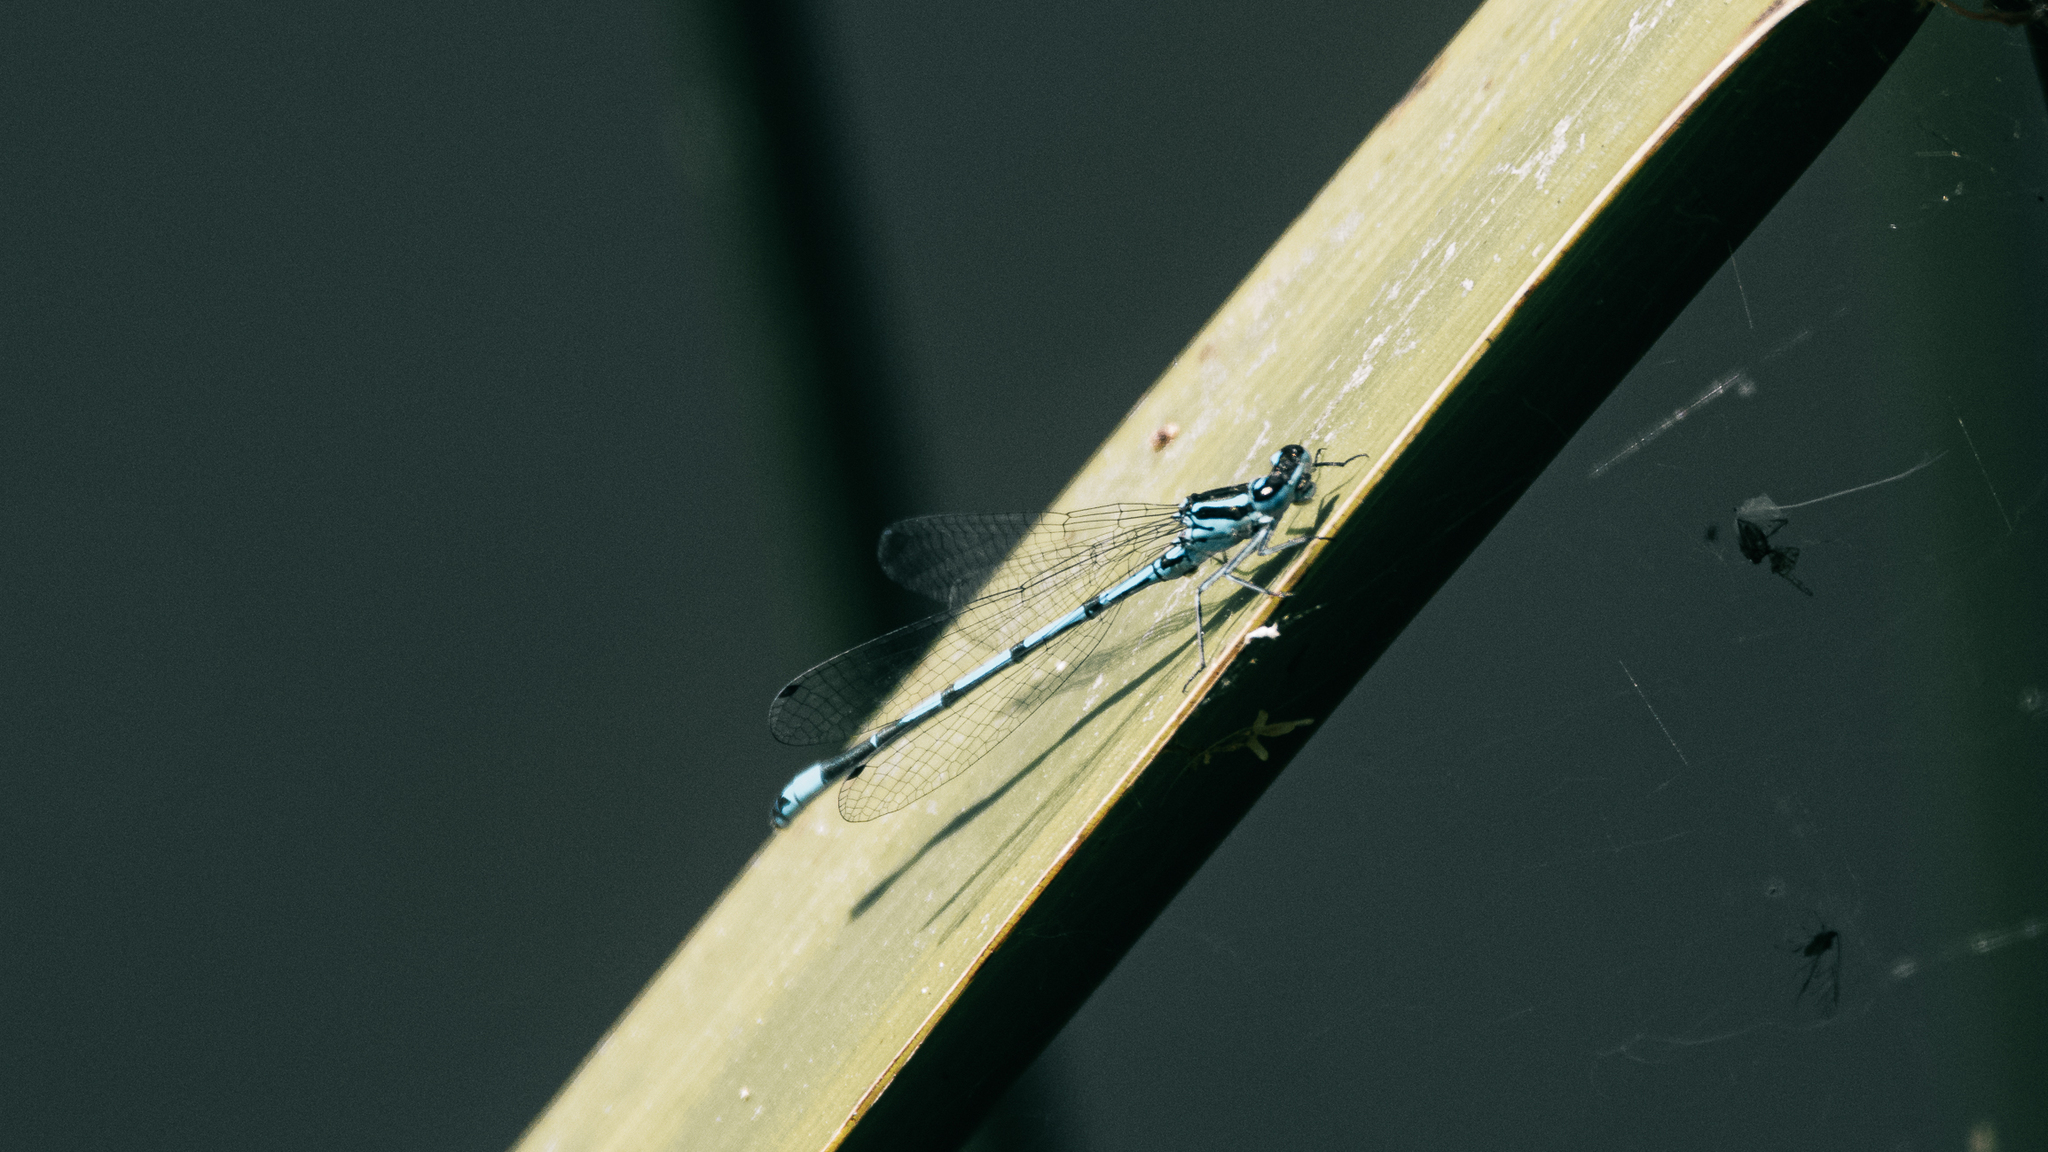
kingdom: Animalia
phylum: Arthropoda
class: Insecta
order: Odonata
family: Coenagrionidae
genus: Coenagrion
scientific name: Coenagrion puella
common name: Azure damselfly
